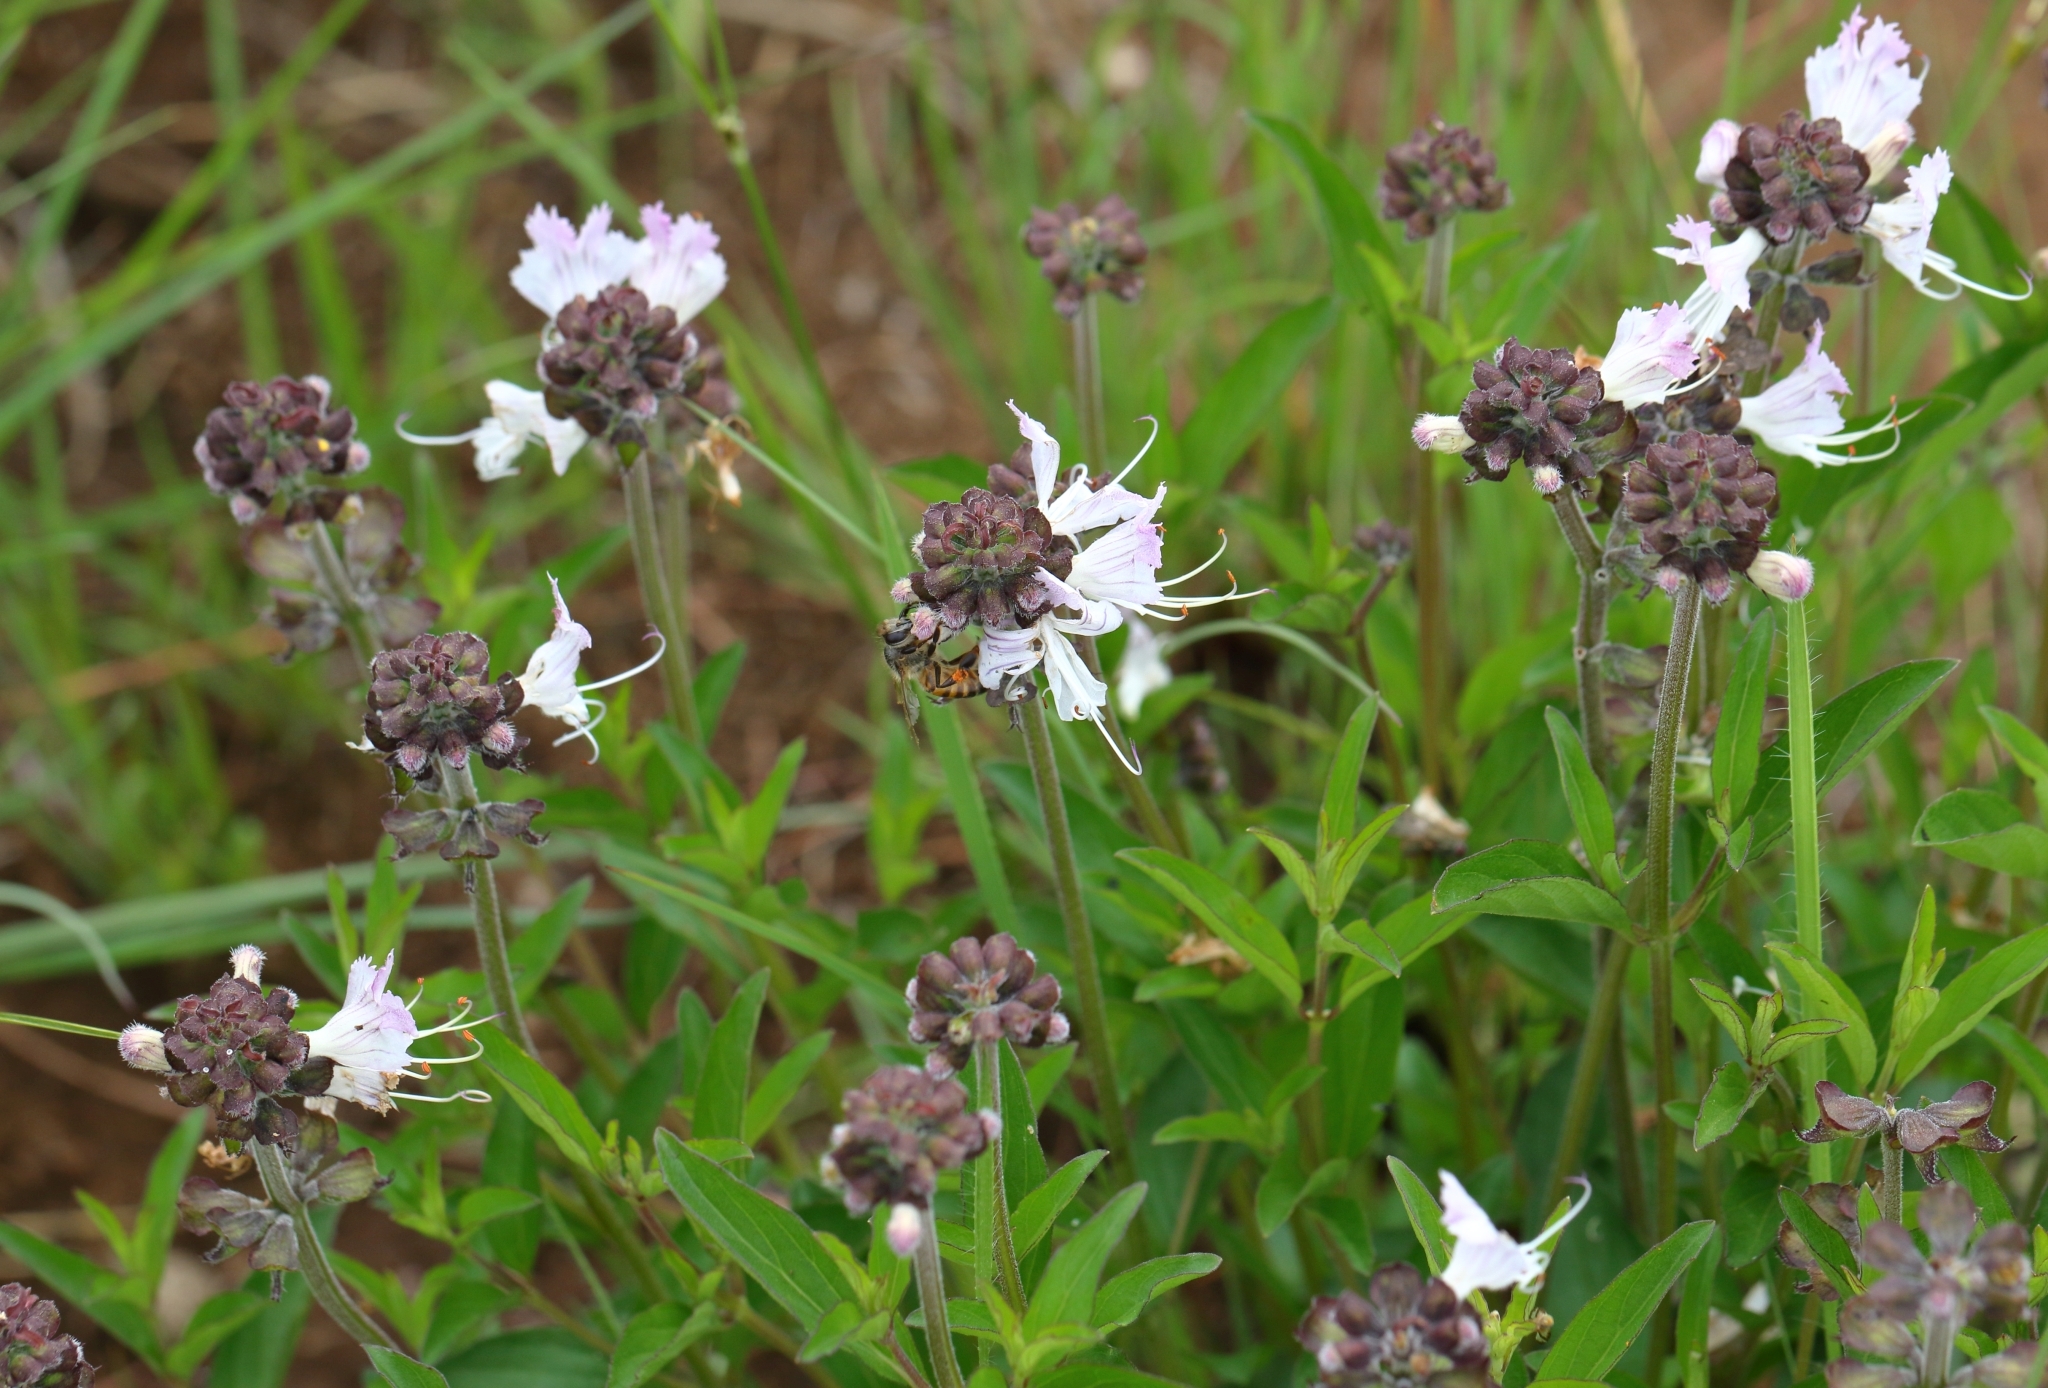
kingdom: Plantae
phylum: Tracheophyta
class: Magnoliopsida
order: Lamiales
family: Lamiaceae
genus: Ocimum
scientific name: Ocimum obovatum
